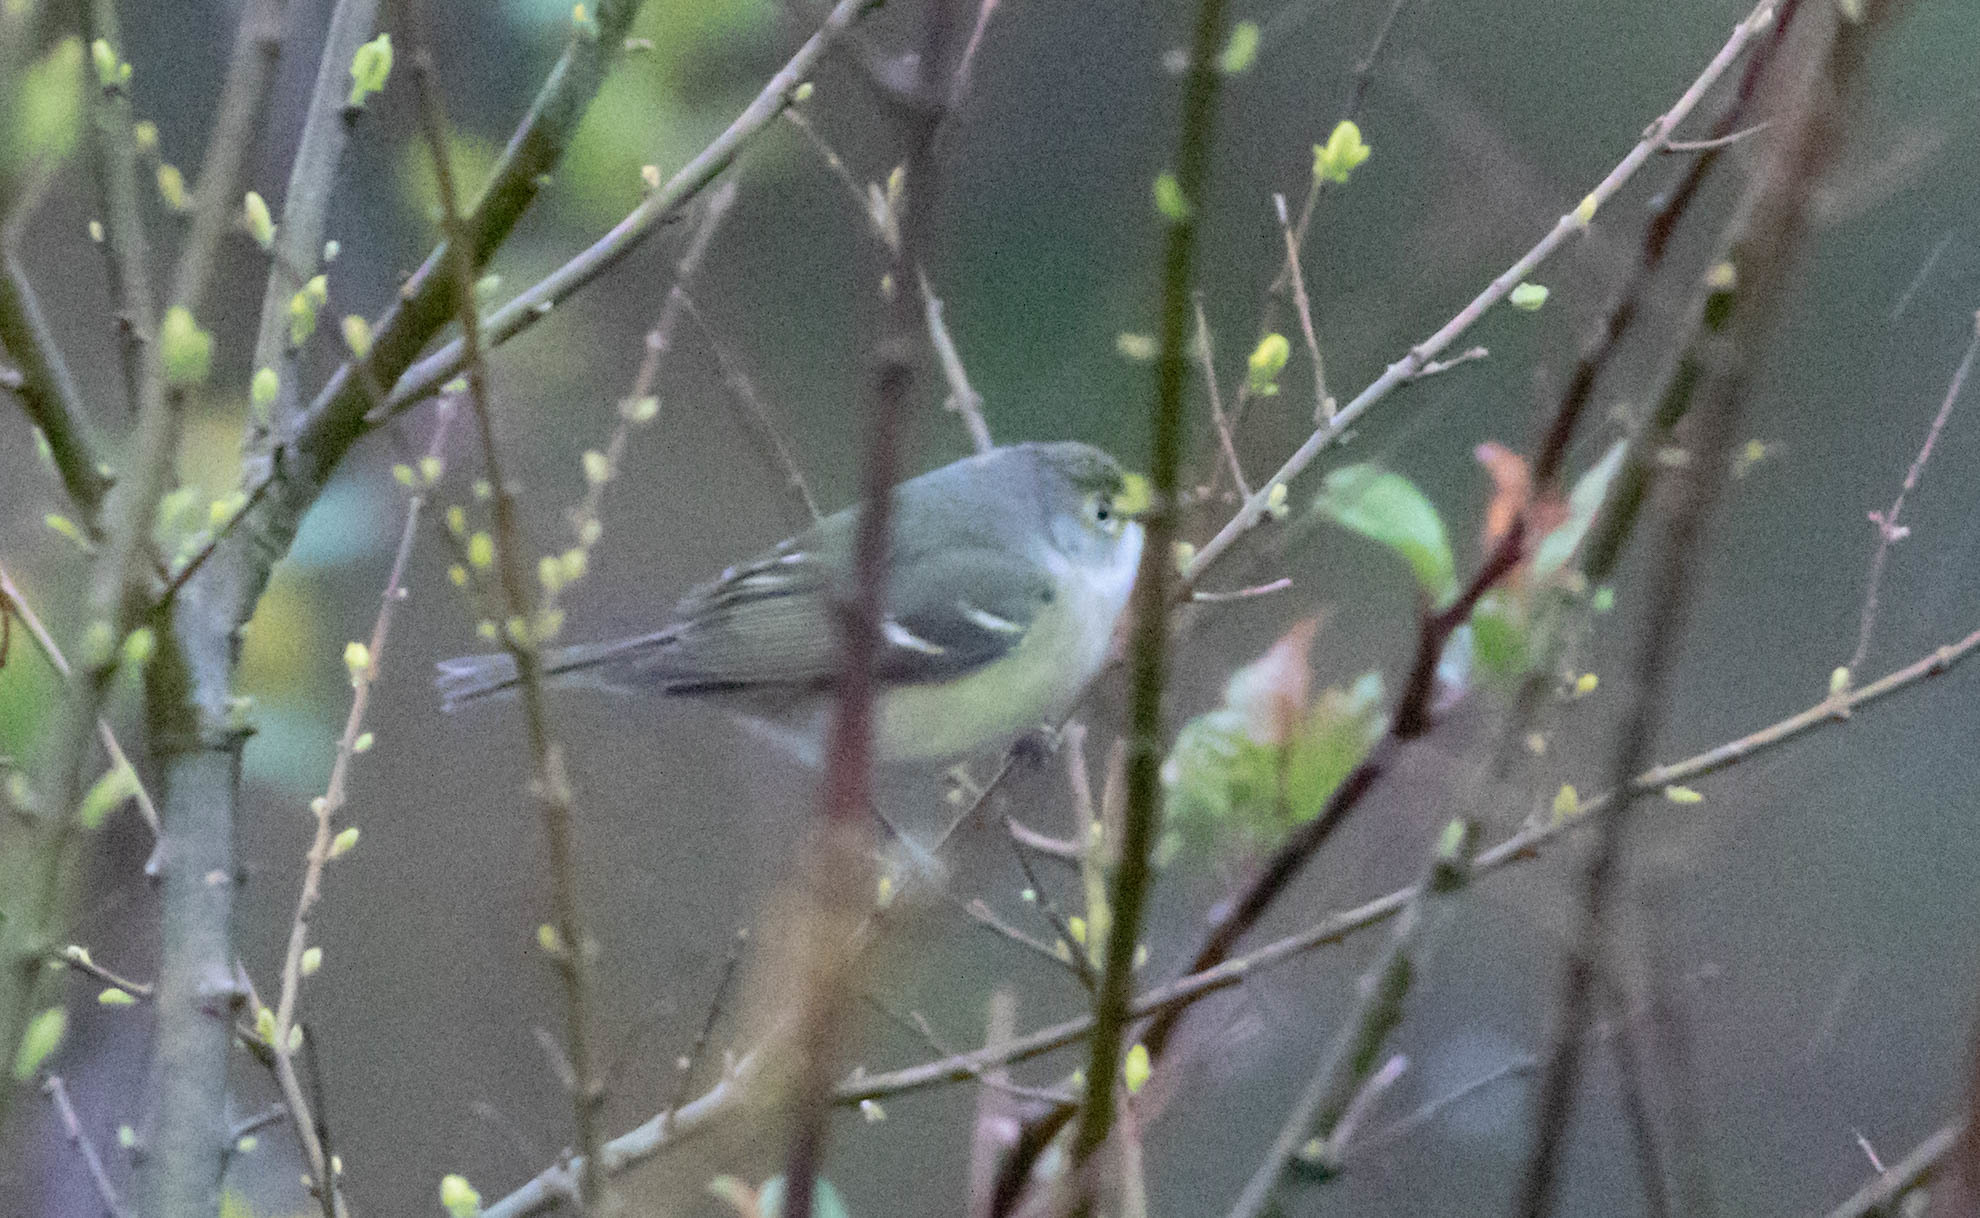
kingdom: Animalia
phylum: Chordata
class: Aves
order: Passeriformes
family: Vireonidae
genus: Vireo
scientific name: Vireo griseus
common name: White-eyed vireo
